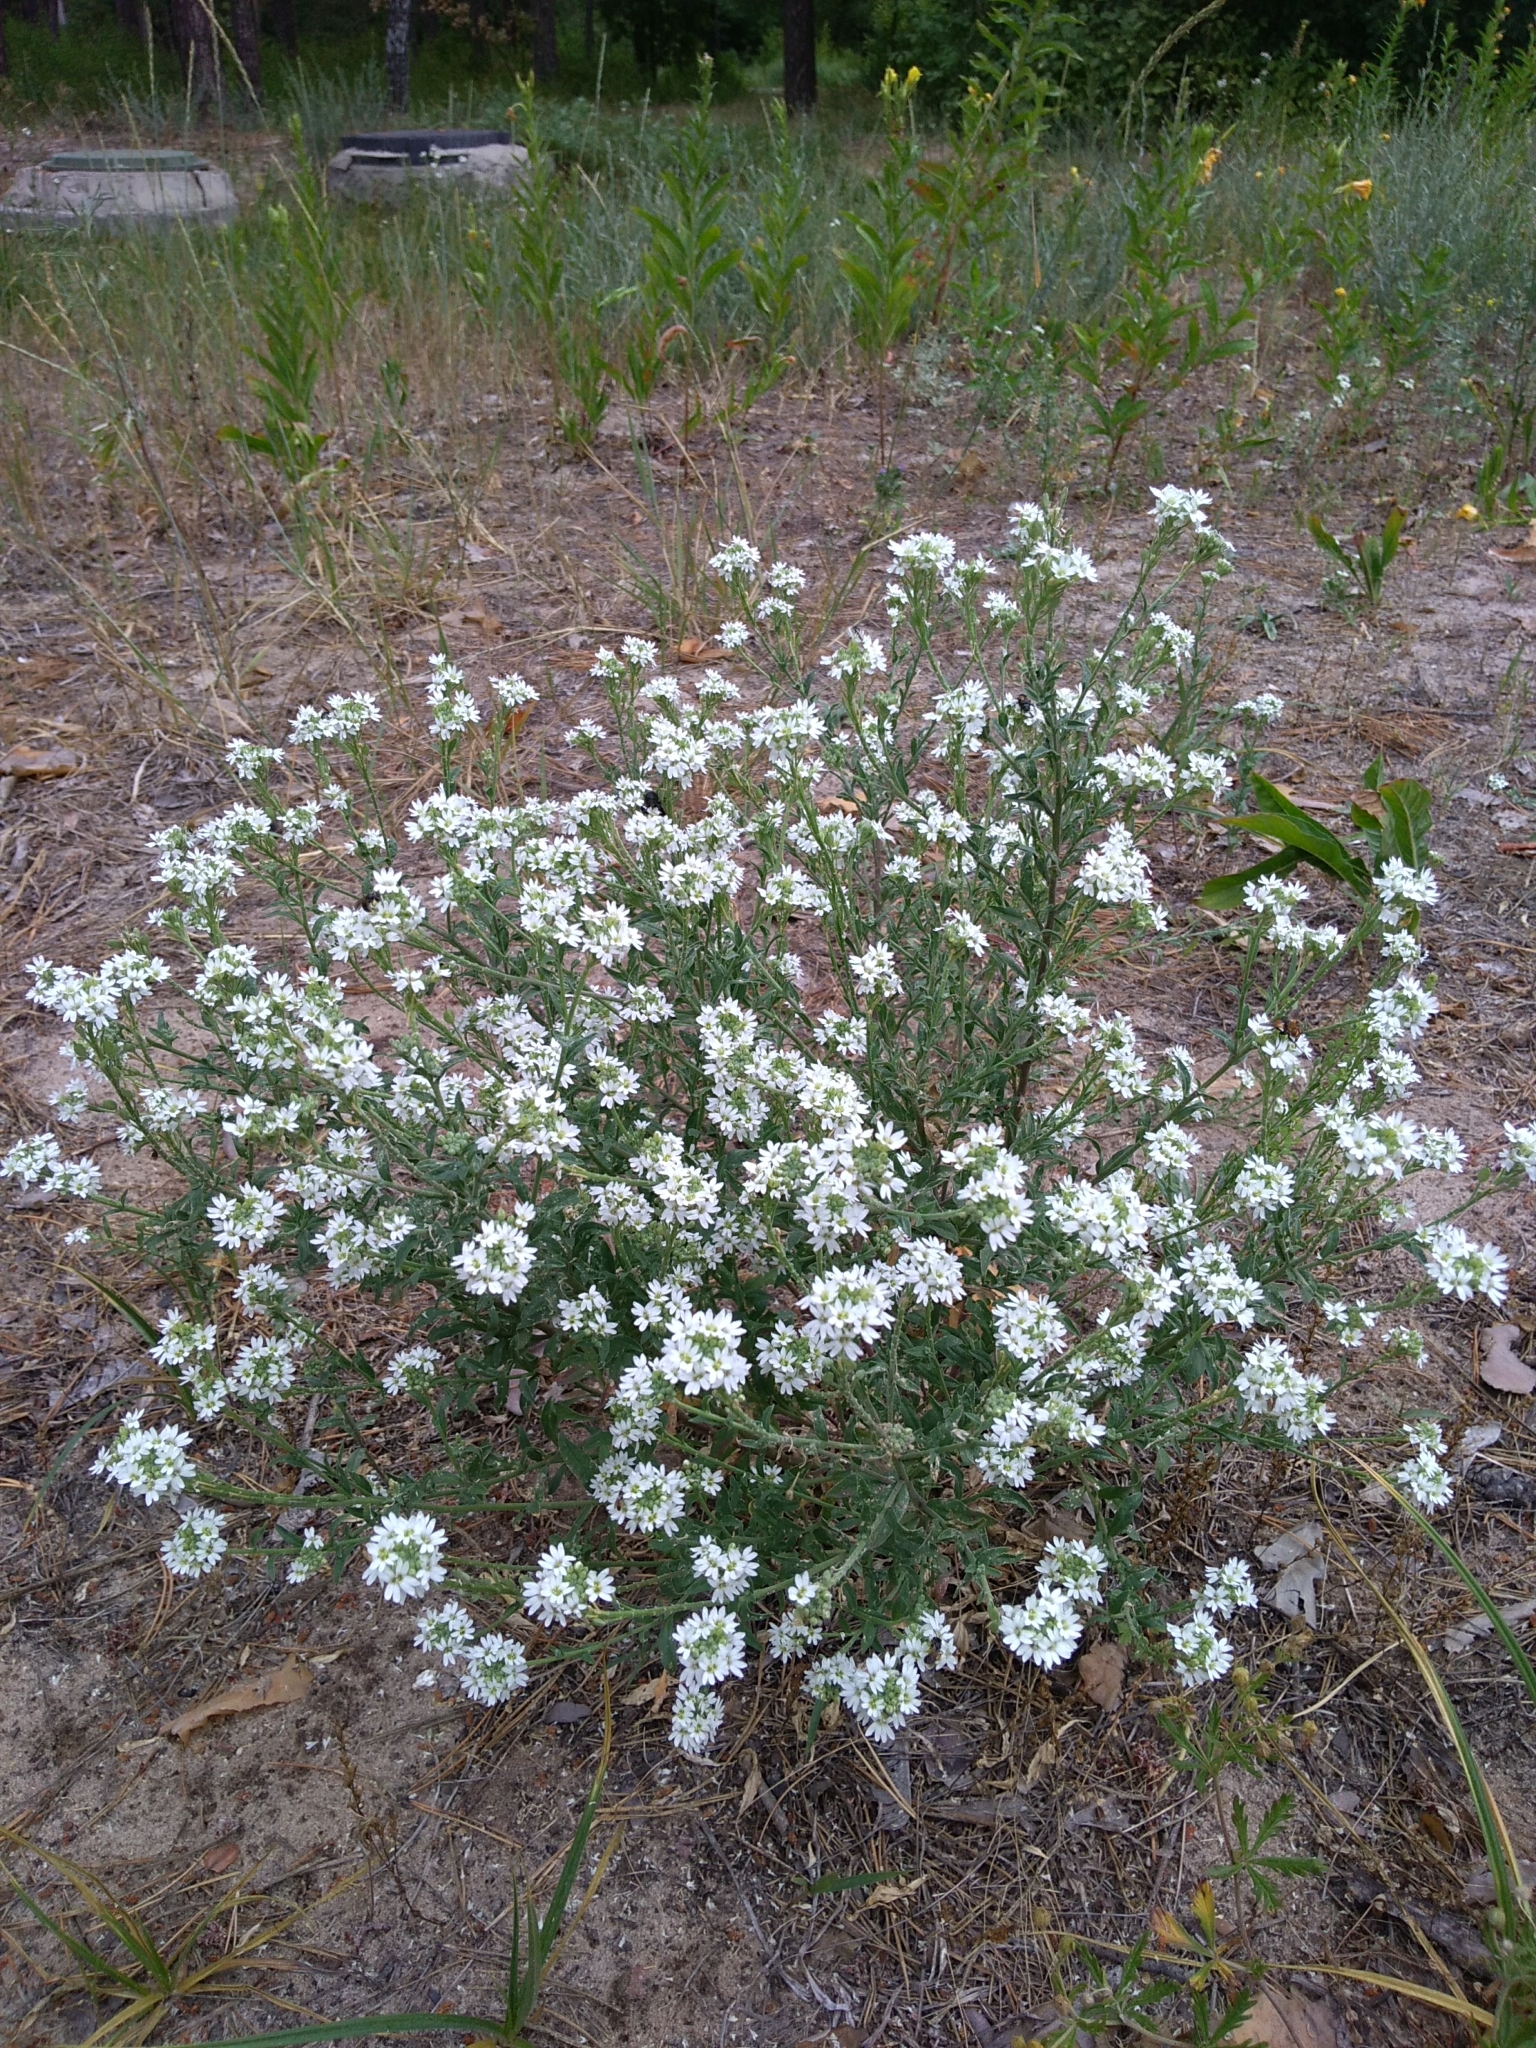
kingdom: Plantae
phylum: Tracheophyta
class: Magnoliopsida
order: Brassicales
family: Brassicaceae
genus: Berteroa
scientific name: Berteroa incana
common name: Hoary alison
